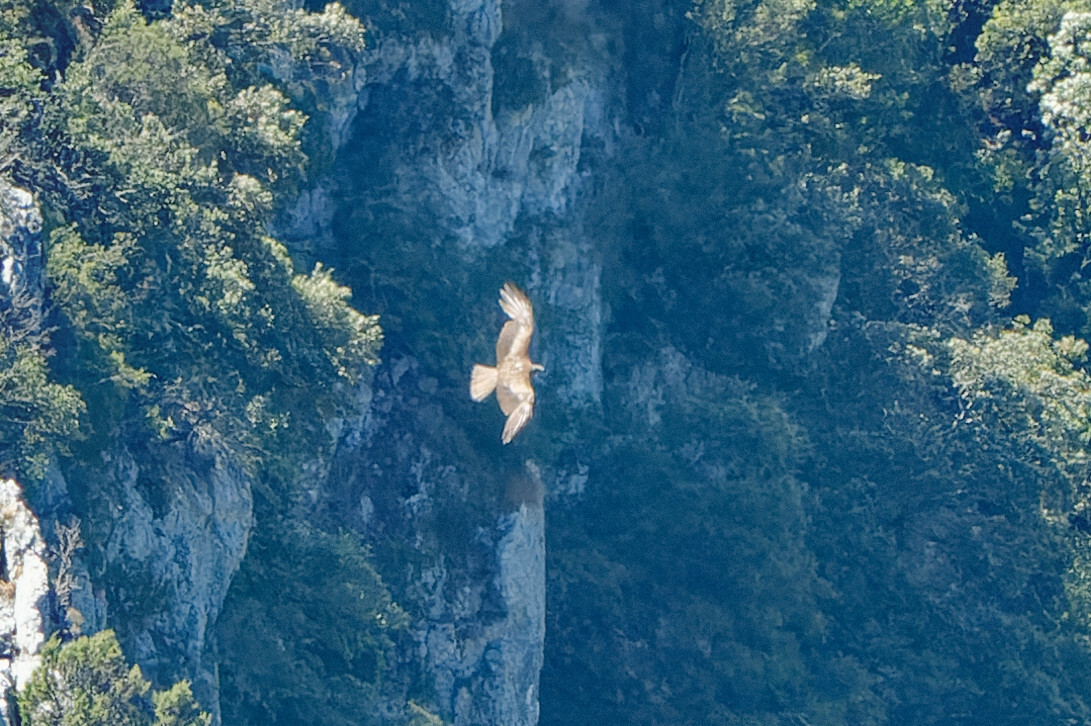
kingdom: Animalia
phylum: Chordata
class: Aves
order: Accipitriformes
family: Accipitridae
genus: Milvus
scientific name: Milvus migrans
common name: Black kite
